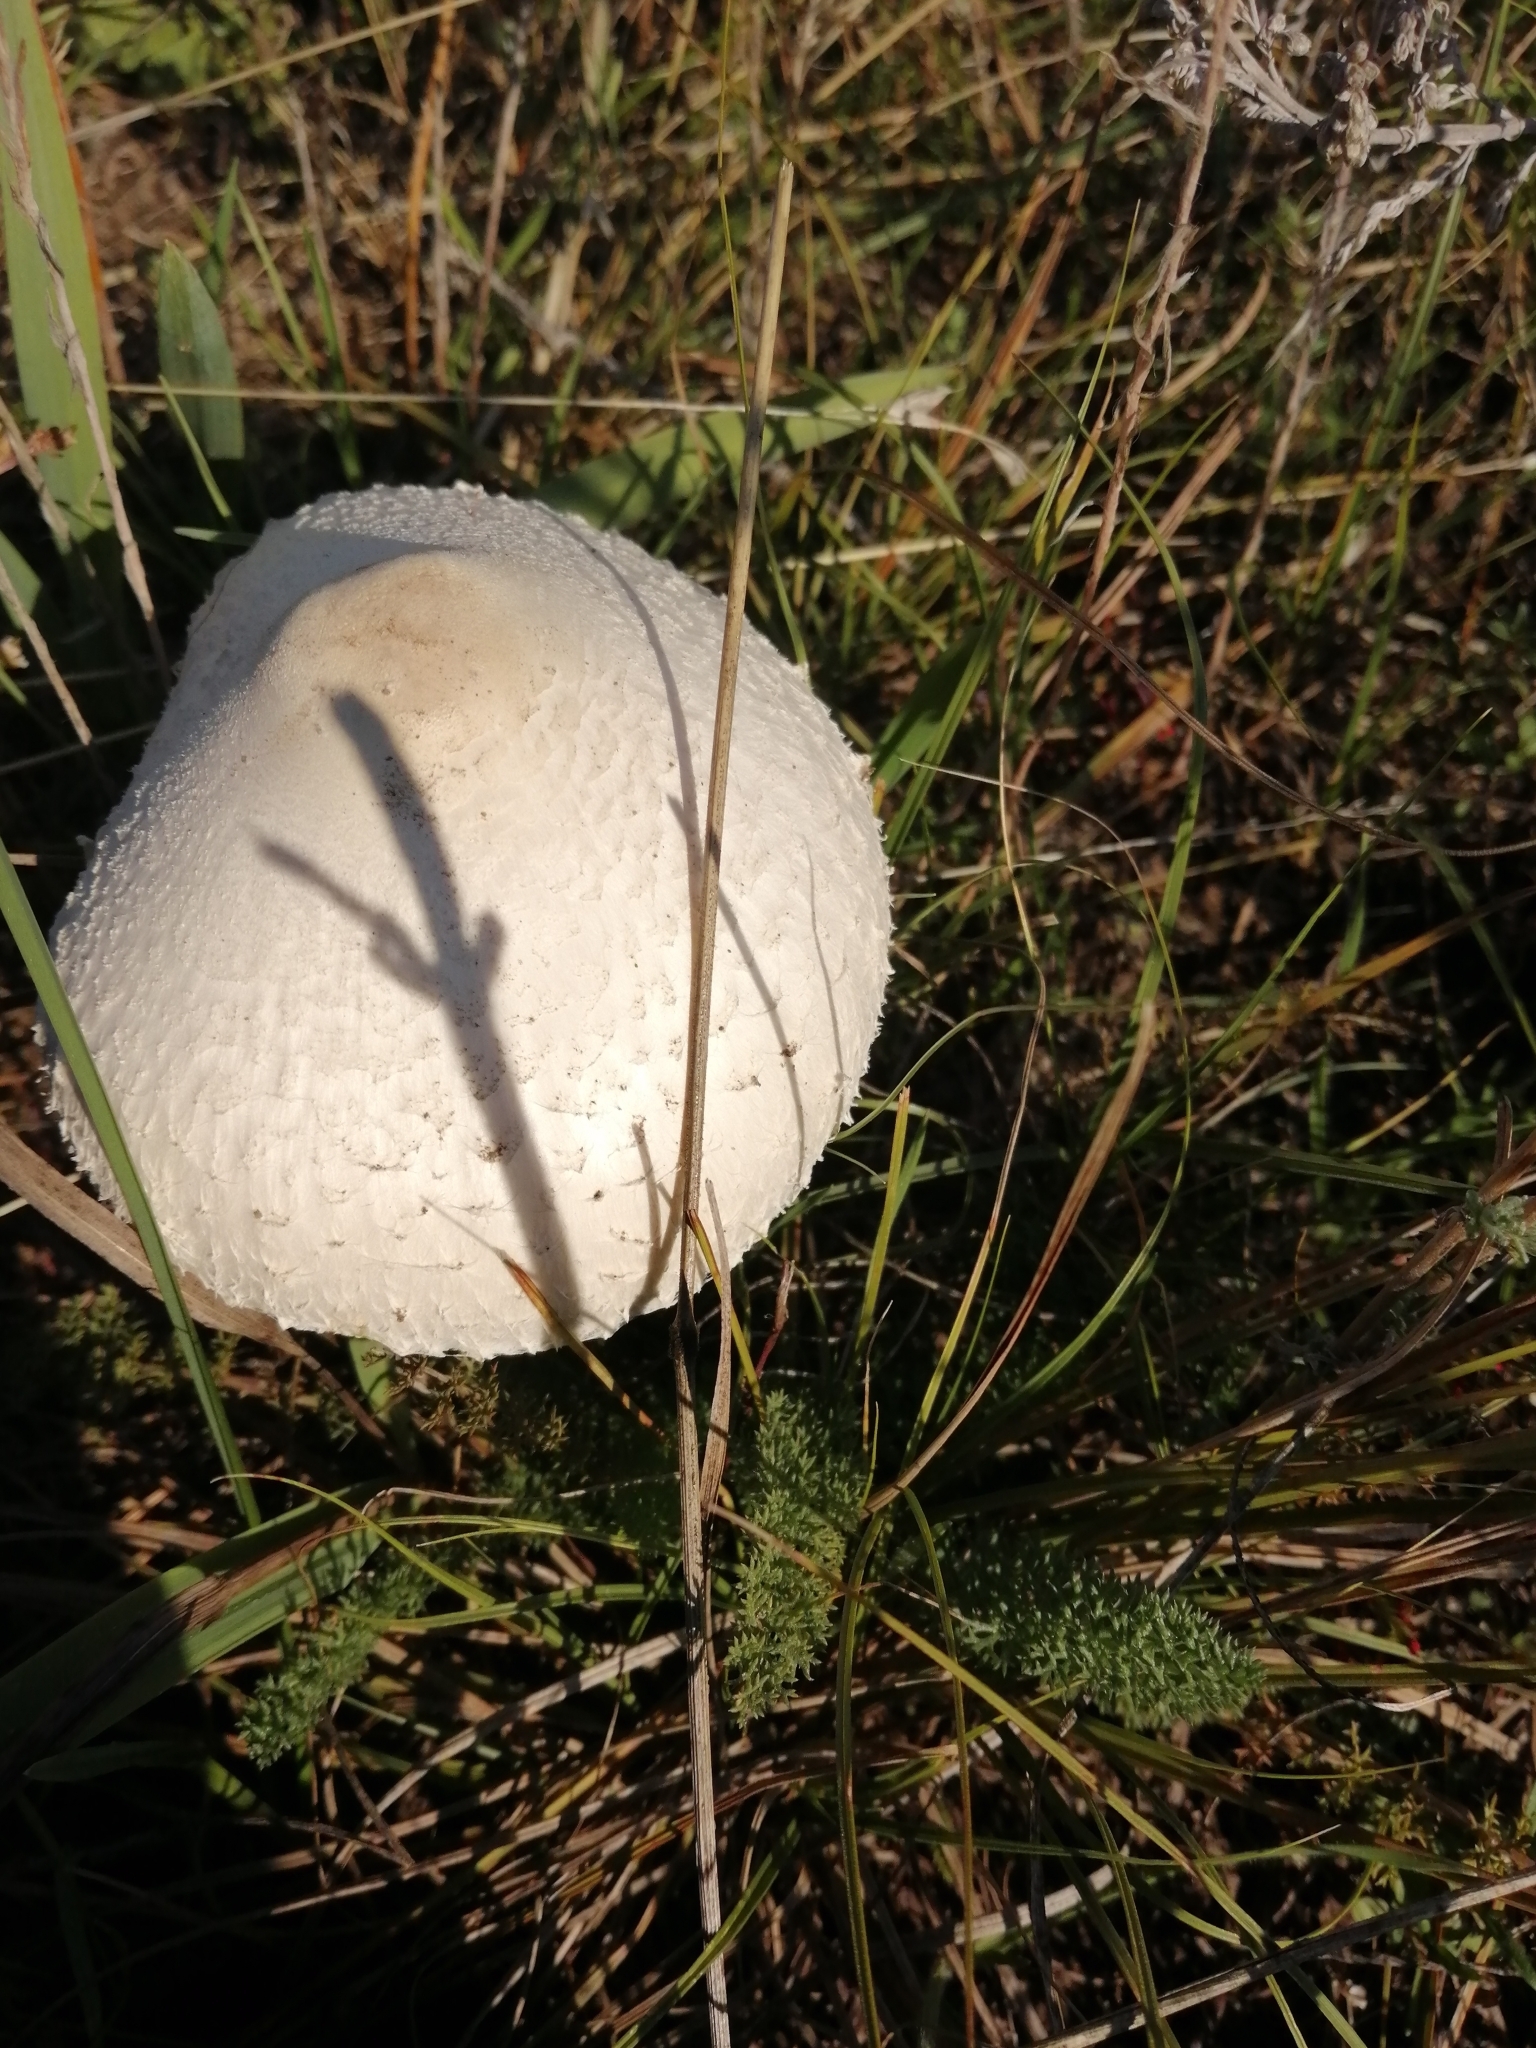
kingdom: Fungi
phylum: Basidiomycota
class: Agaricomycetes
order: Agaricales
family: Agaricaceae
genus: Macrolepiota
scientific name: Macrolepiota excoriata
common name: Frayed parasol
